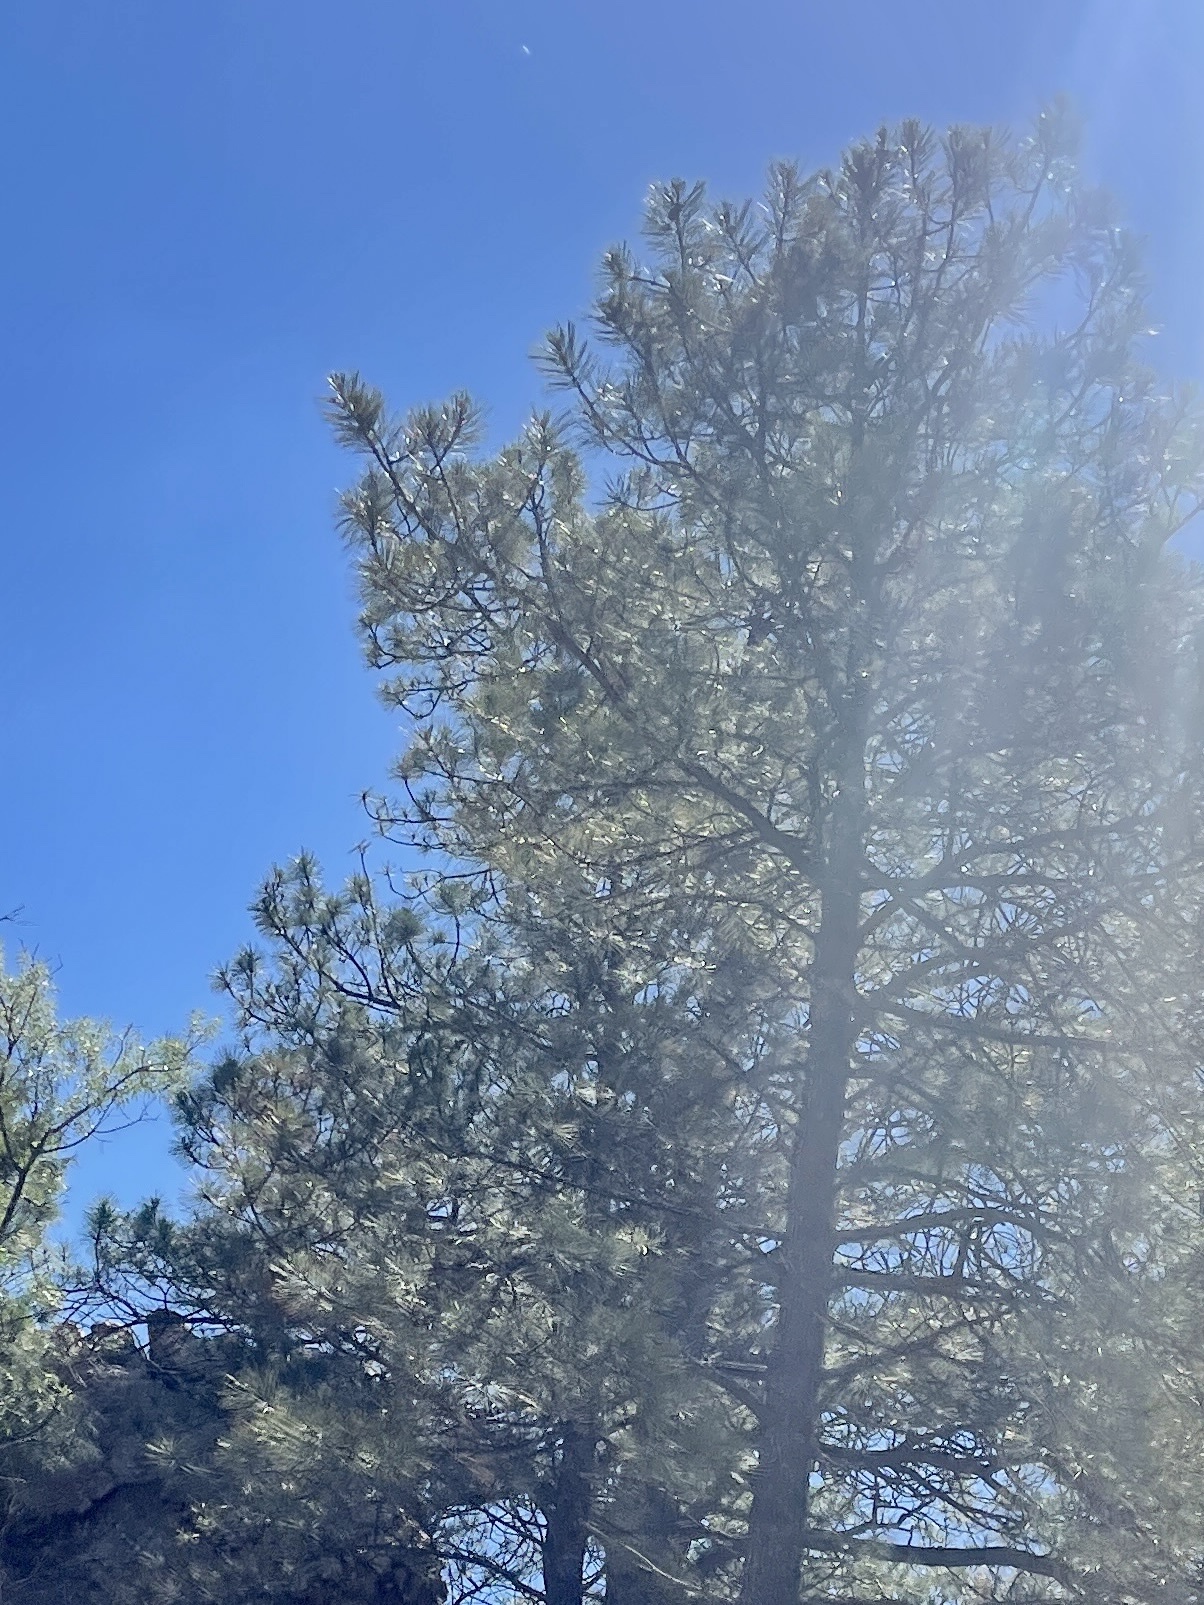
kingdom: Plantae
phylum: Tracheophyta
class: Pinopsida
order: Pinales
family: Pinaceae
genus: Pinus
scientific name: Pinus ponderosa
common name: Western yellow-pine
